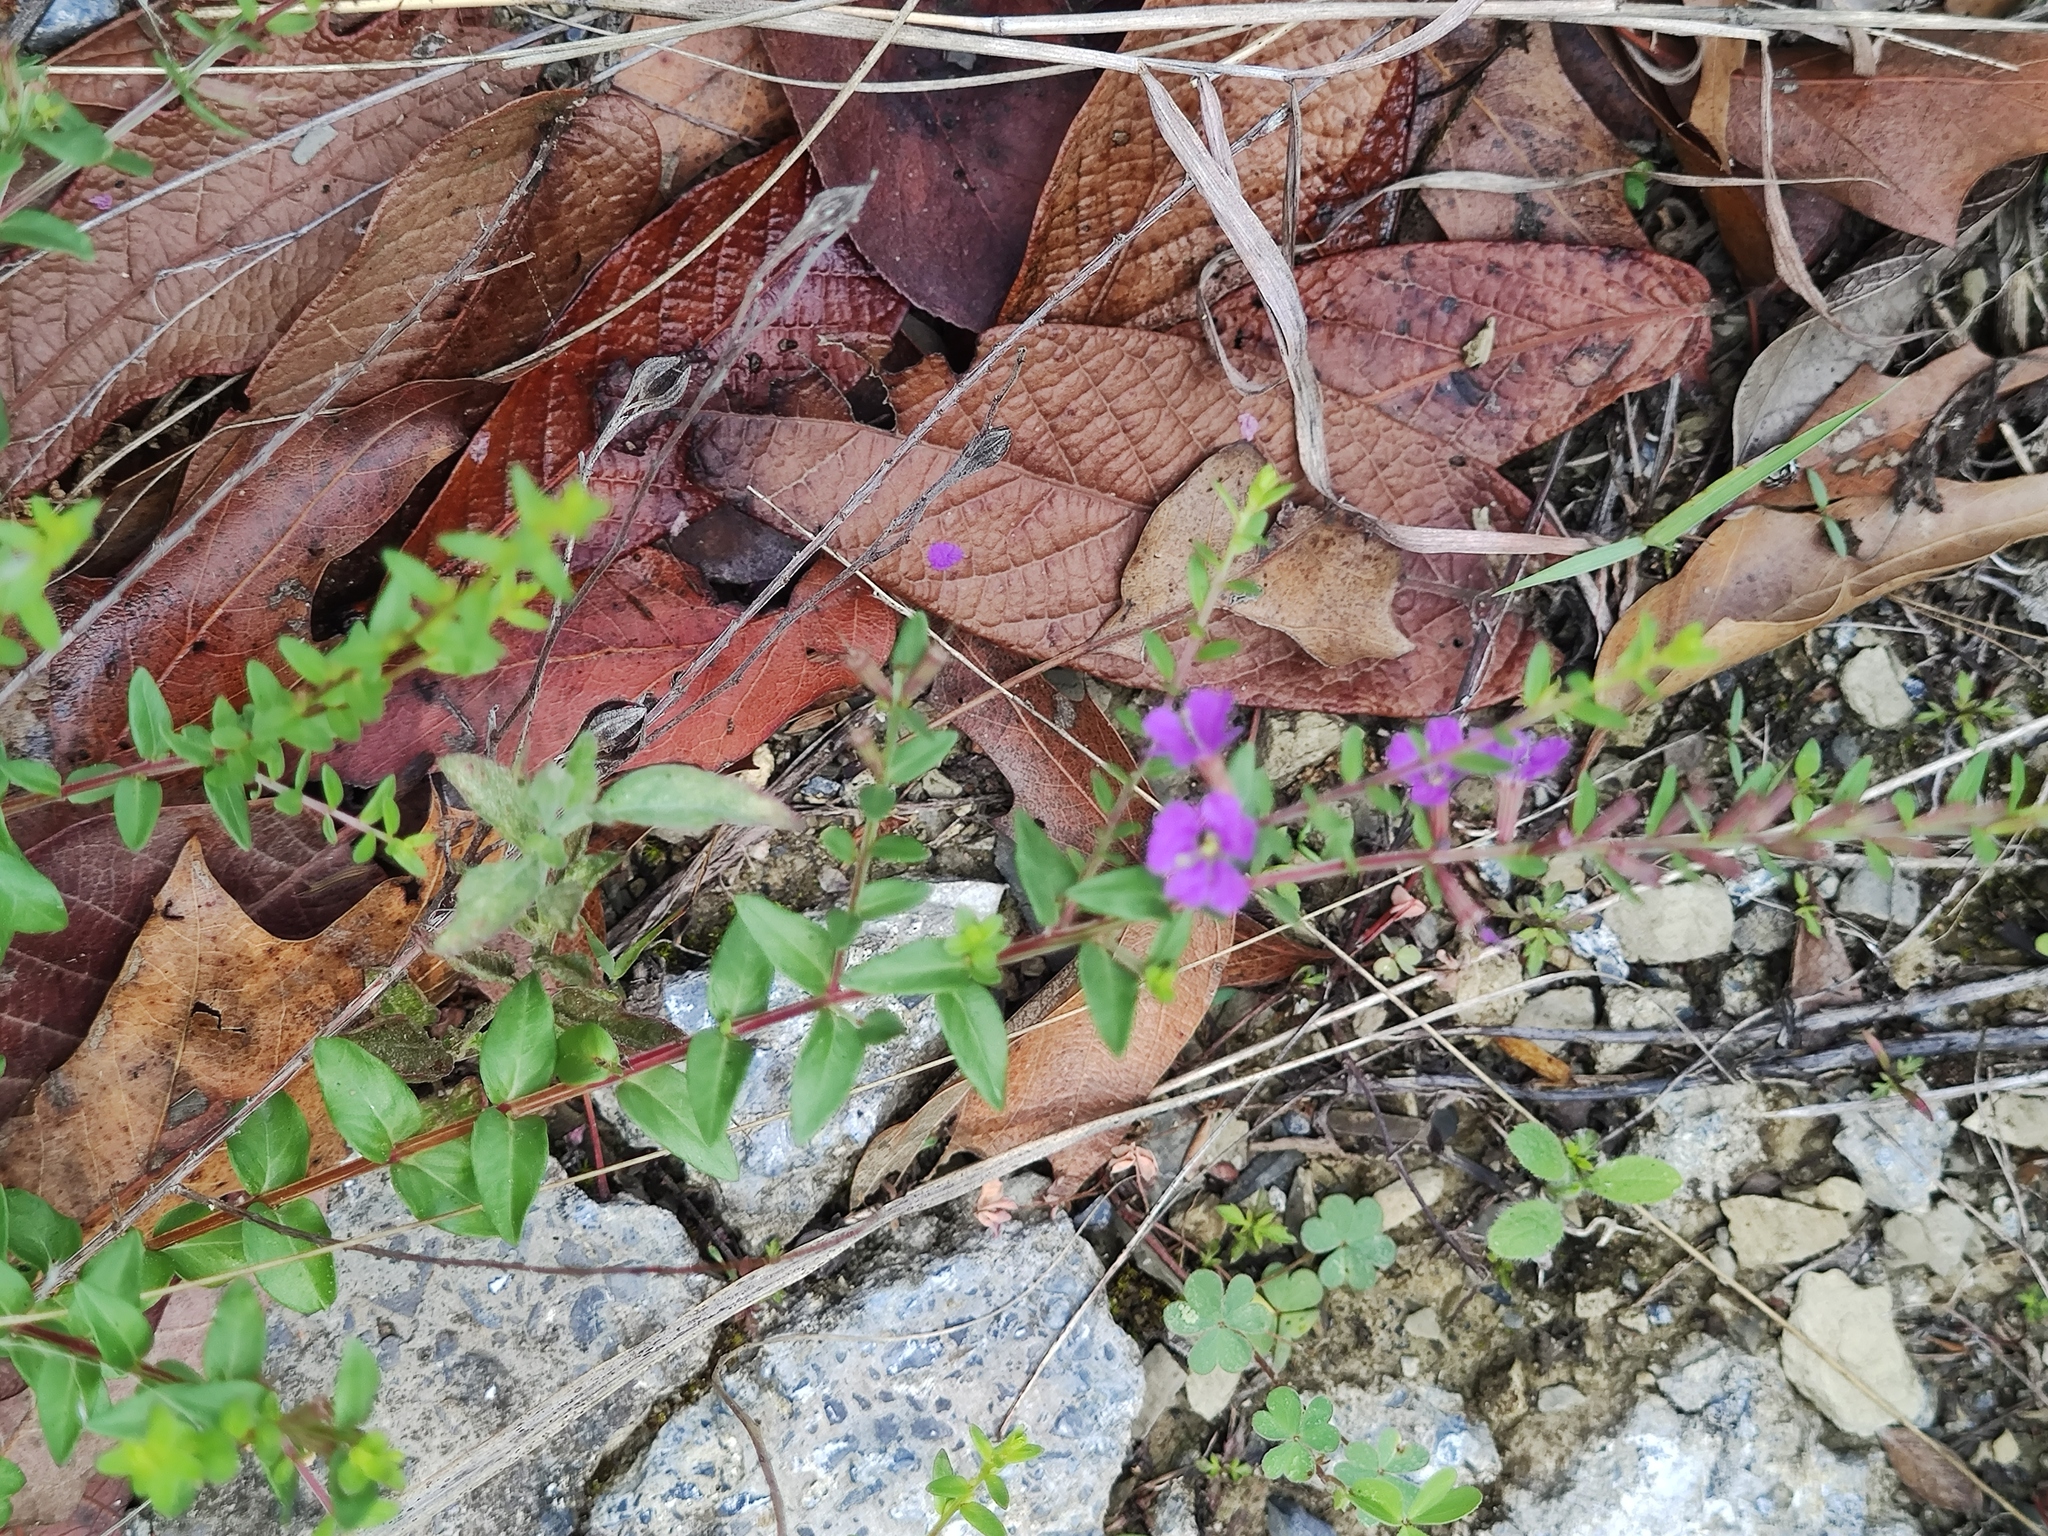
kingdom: Plantae
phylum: Tracheophyta
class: Magnoliopsida
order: Myrtales
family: Lythraceae
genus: Lythrum
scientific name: Lythrum alatum
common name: Winged loosestrife
